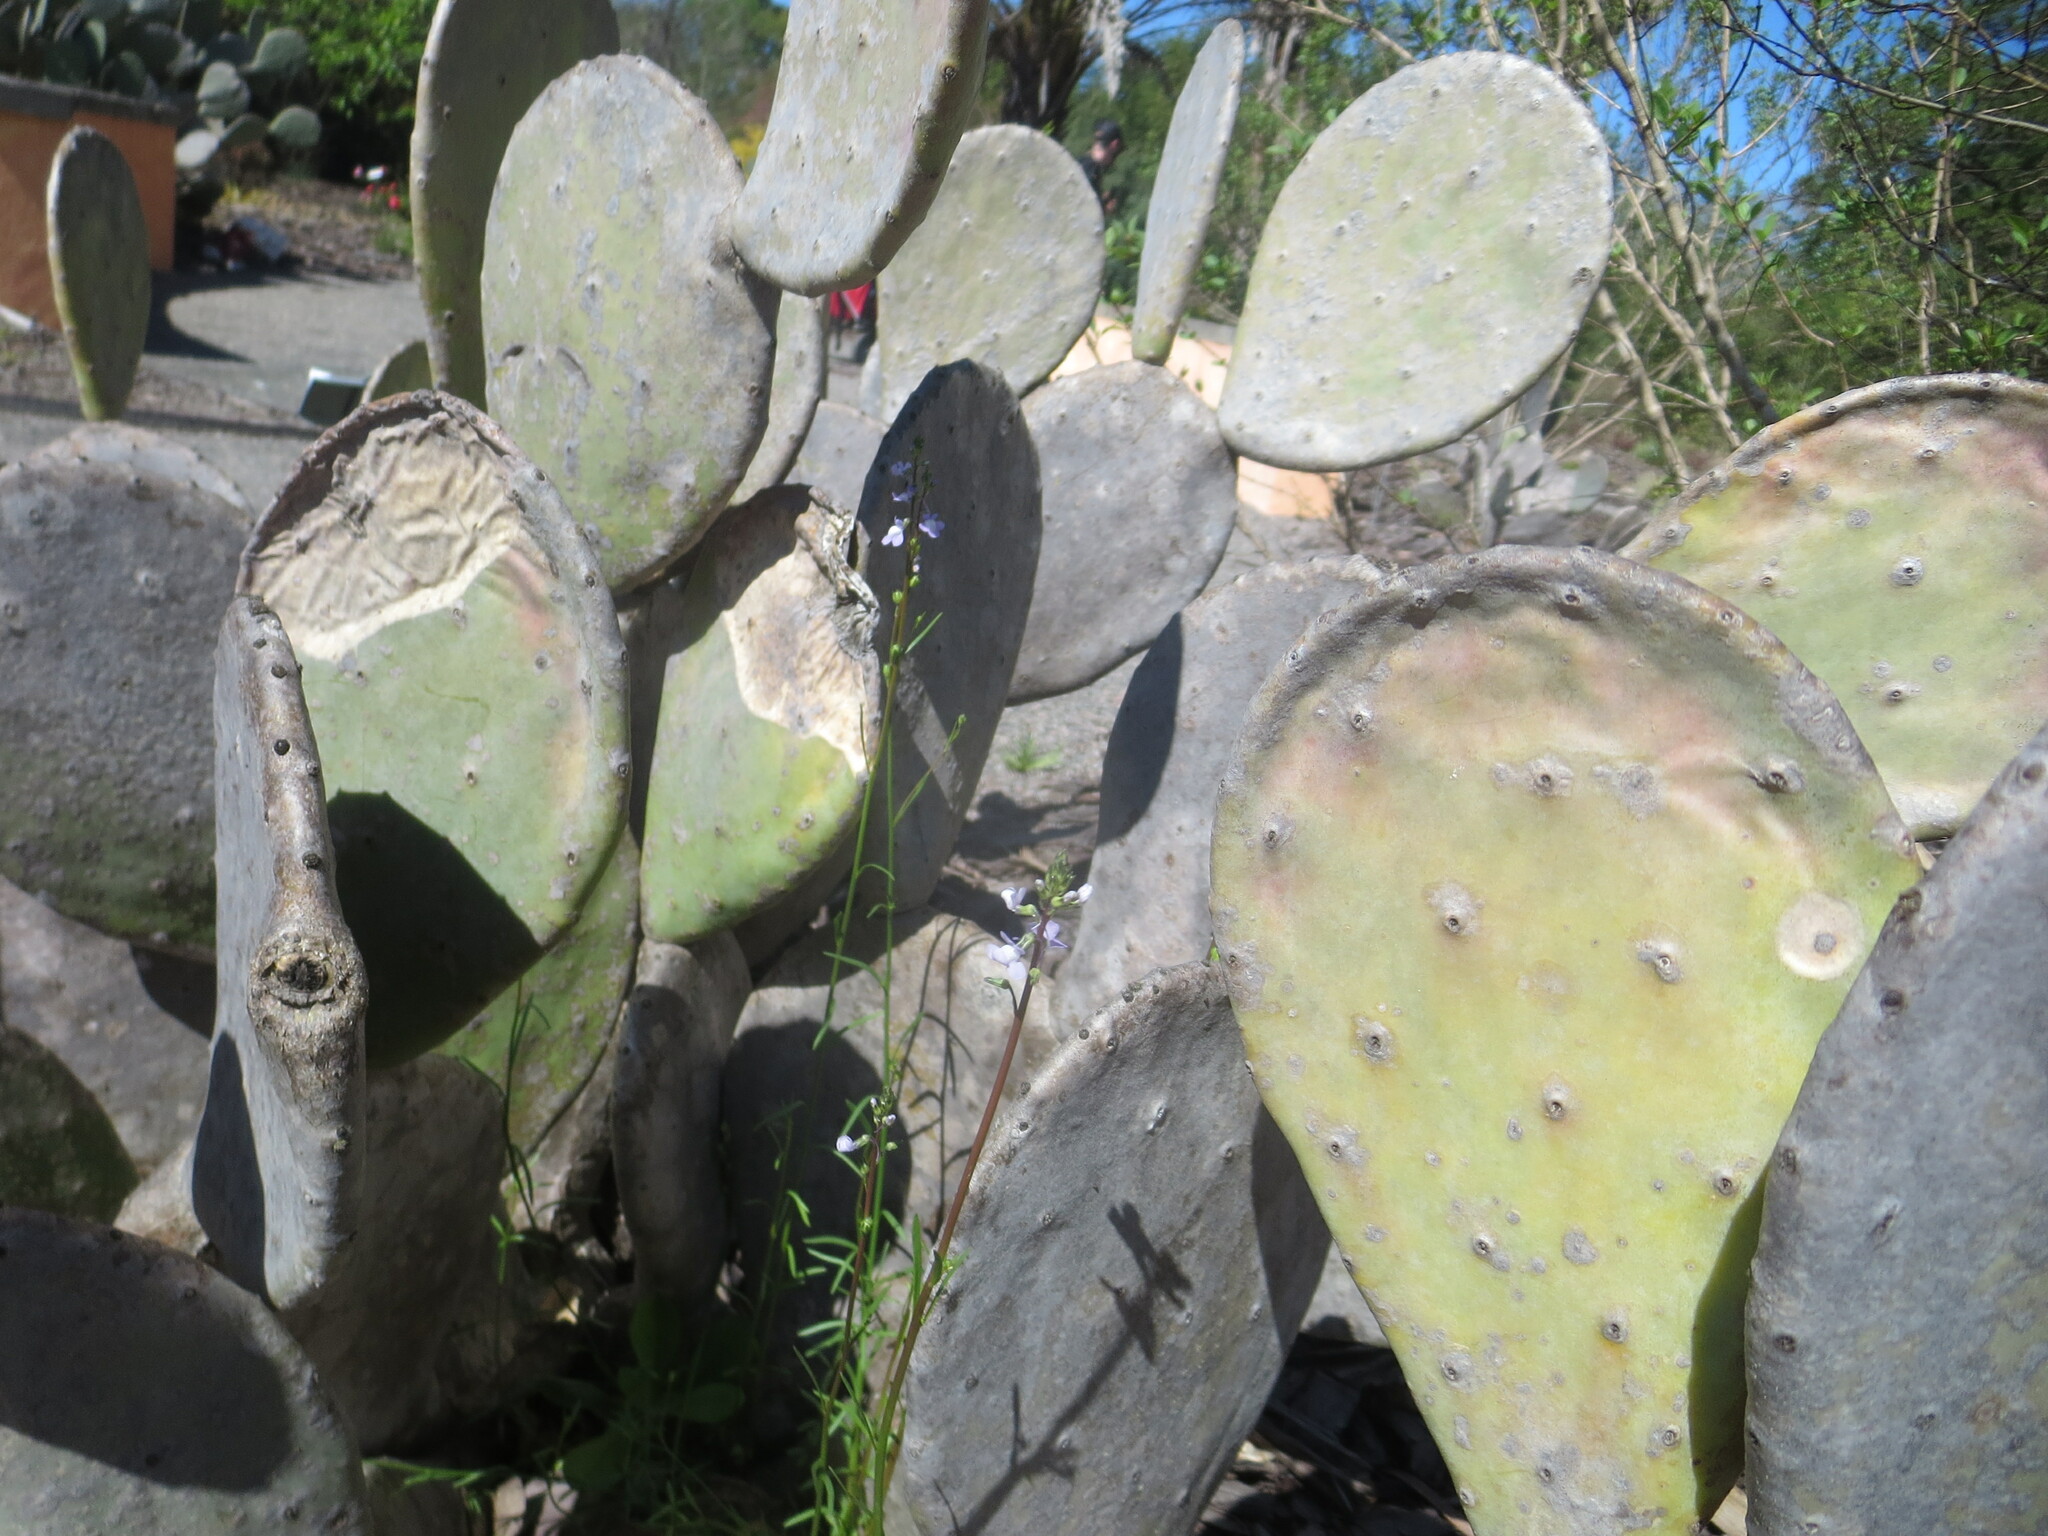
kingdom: Plantae
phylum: Tracheophyta
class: Magnoliopsida
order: Lamiales
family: Plantaginaceae
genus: Nuttallanthus
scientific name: Nuttallanthus canadensis
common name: Blue toadflax
